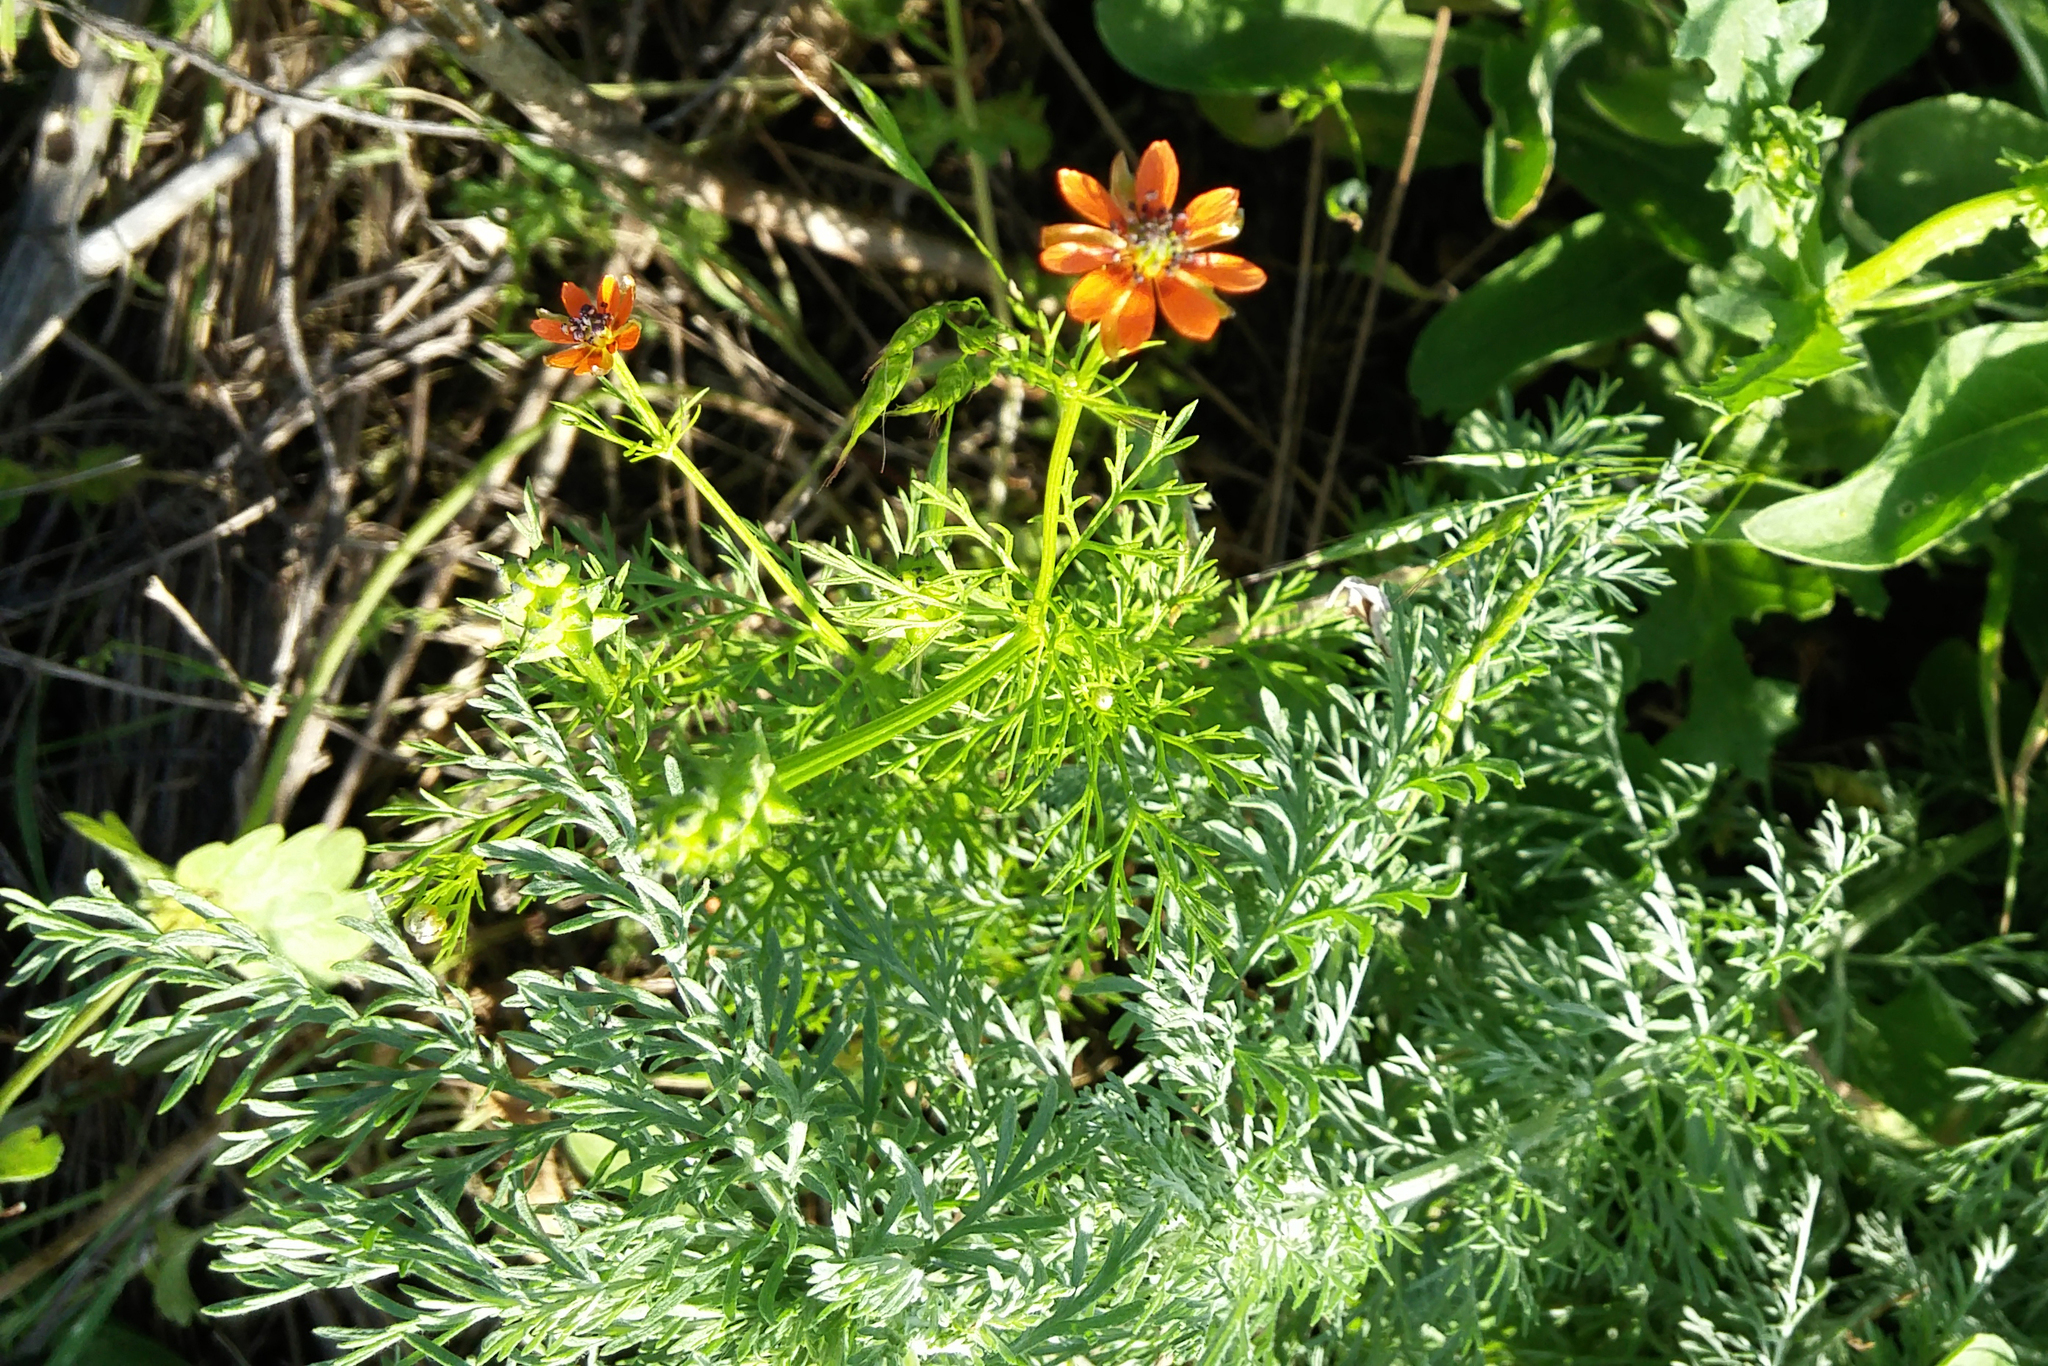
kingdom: Plantae
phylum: Tracheophyta
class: Magnoliopsida
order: Ranunculales
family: Ranunculaceae
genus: Adonis
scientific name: Adonis aestivalis
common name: Summer pheasant's-eye
